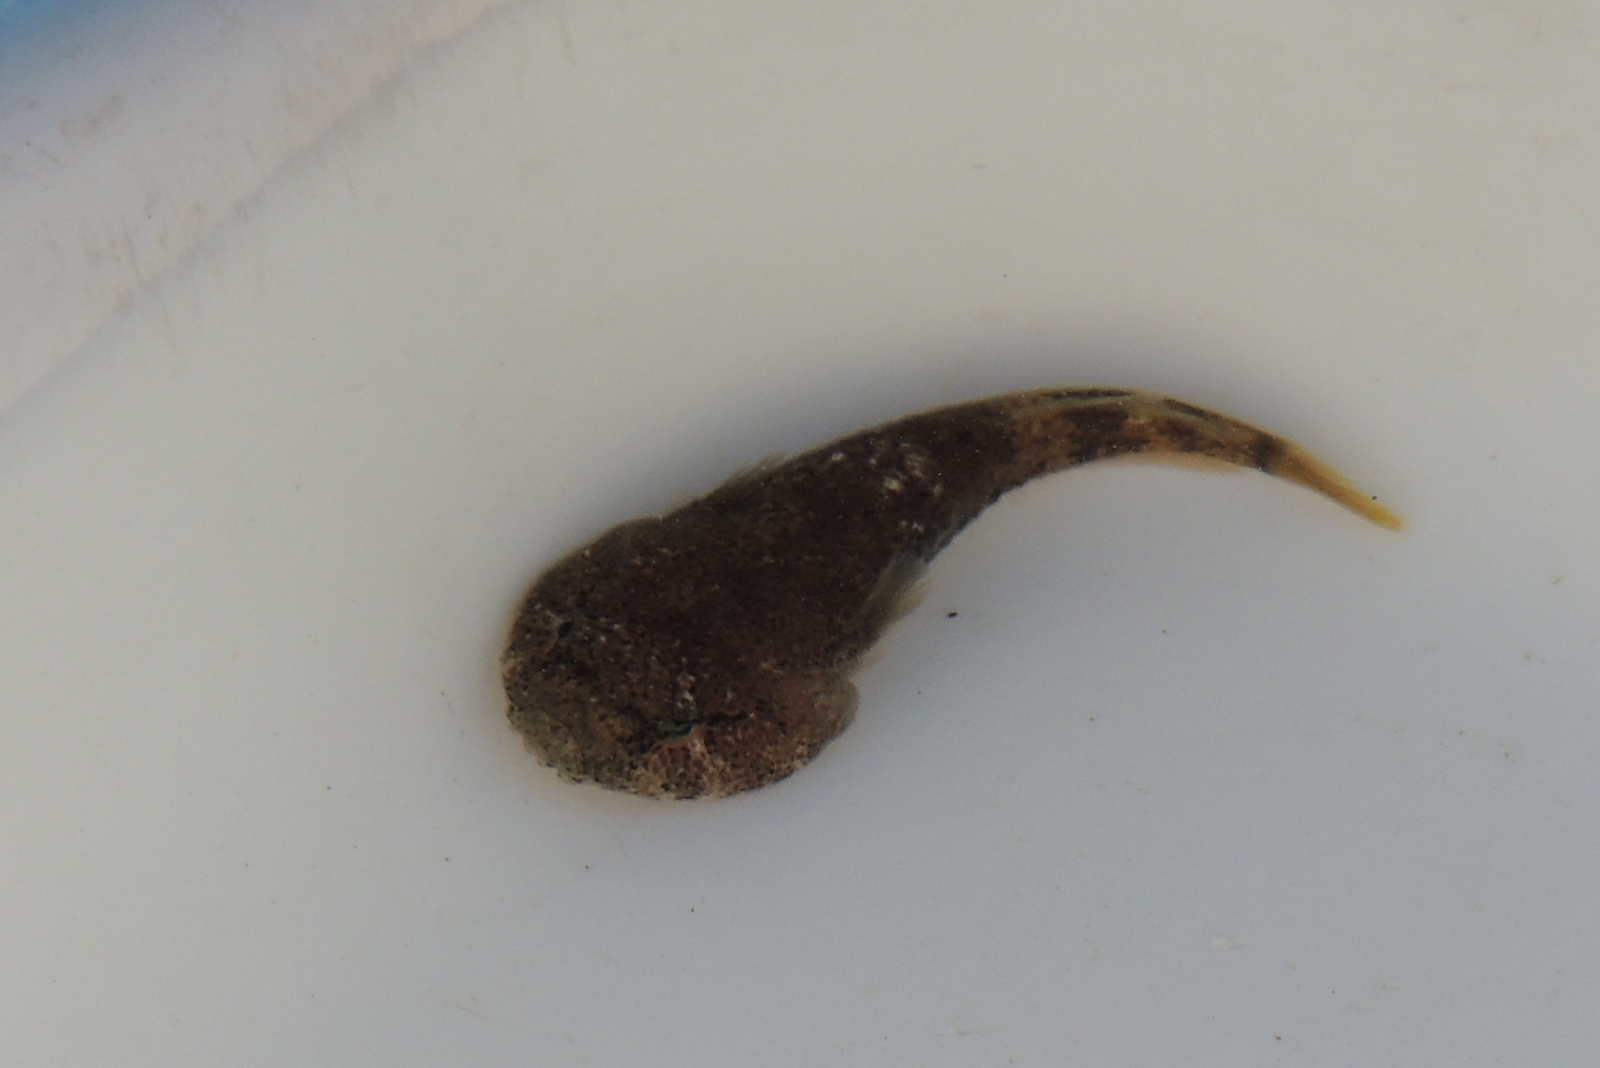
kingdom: Animalia
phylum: Chordata
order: Gobiesociformes
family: Gobiesocidae
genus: Gobiesox
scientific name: Gobiesox rhessodon
